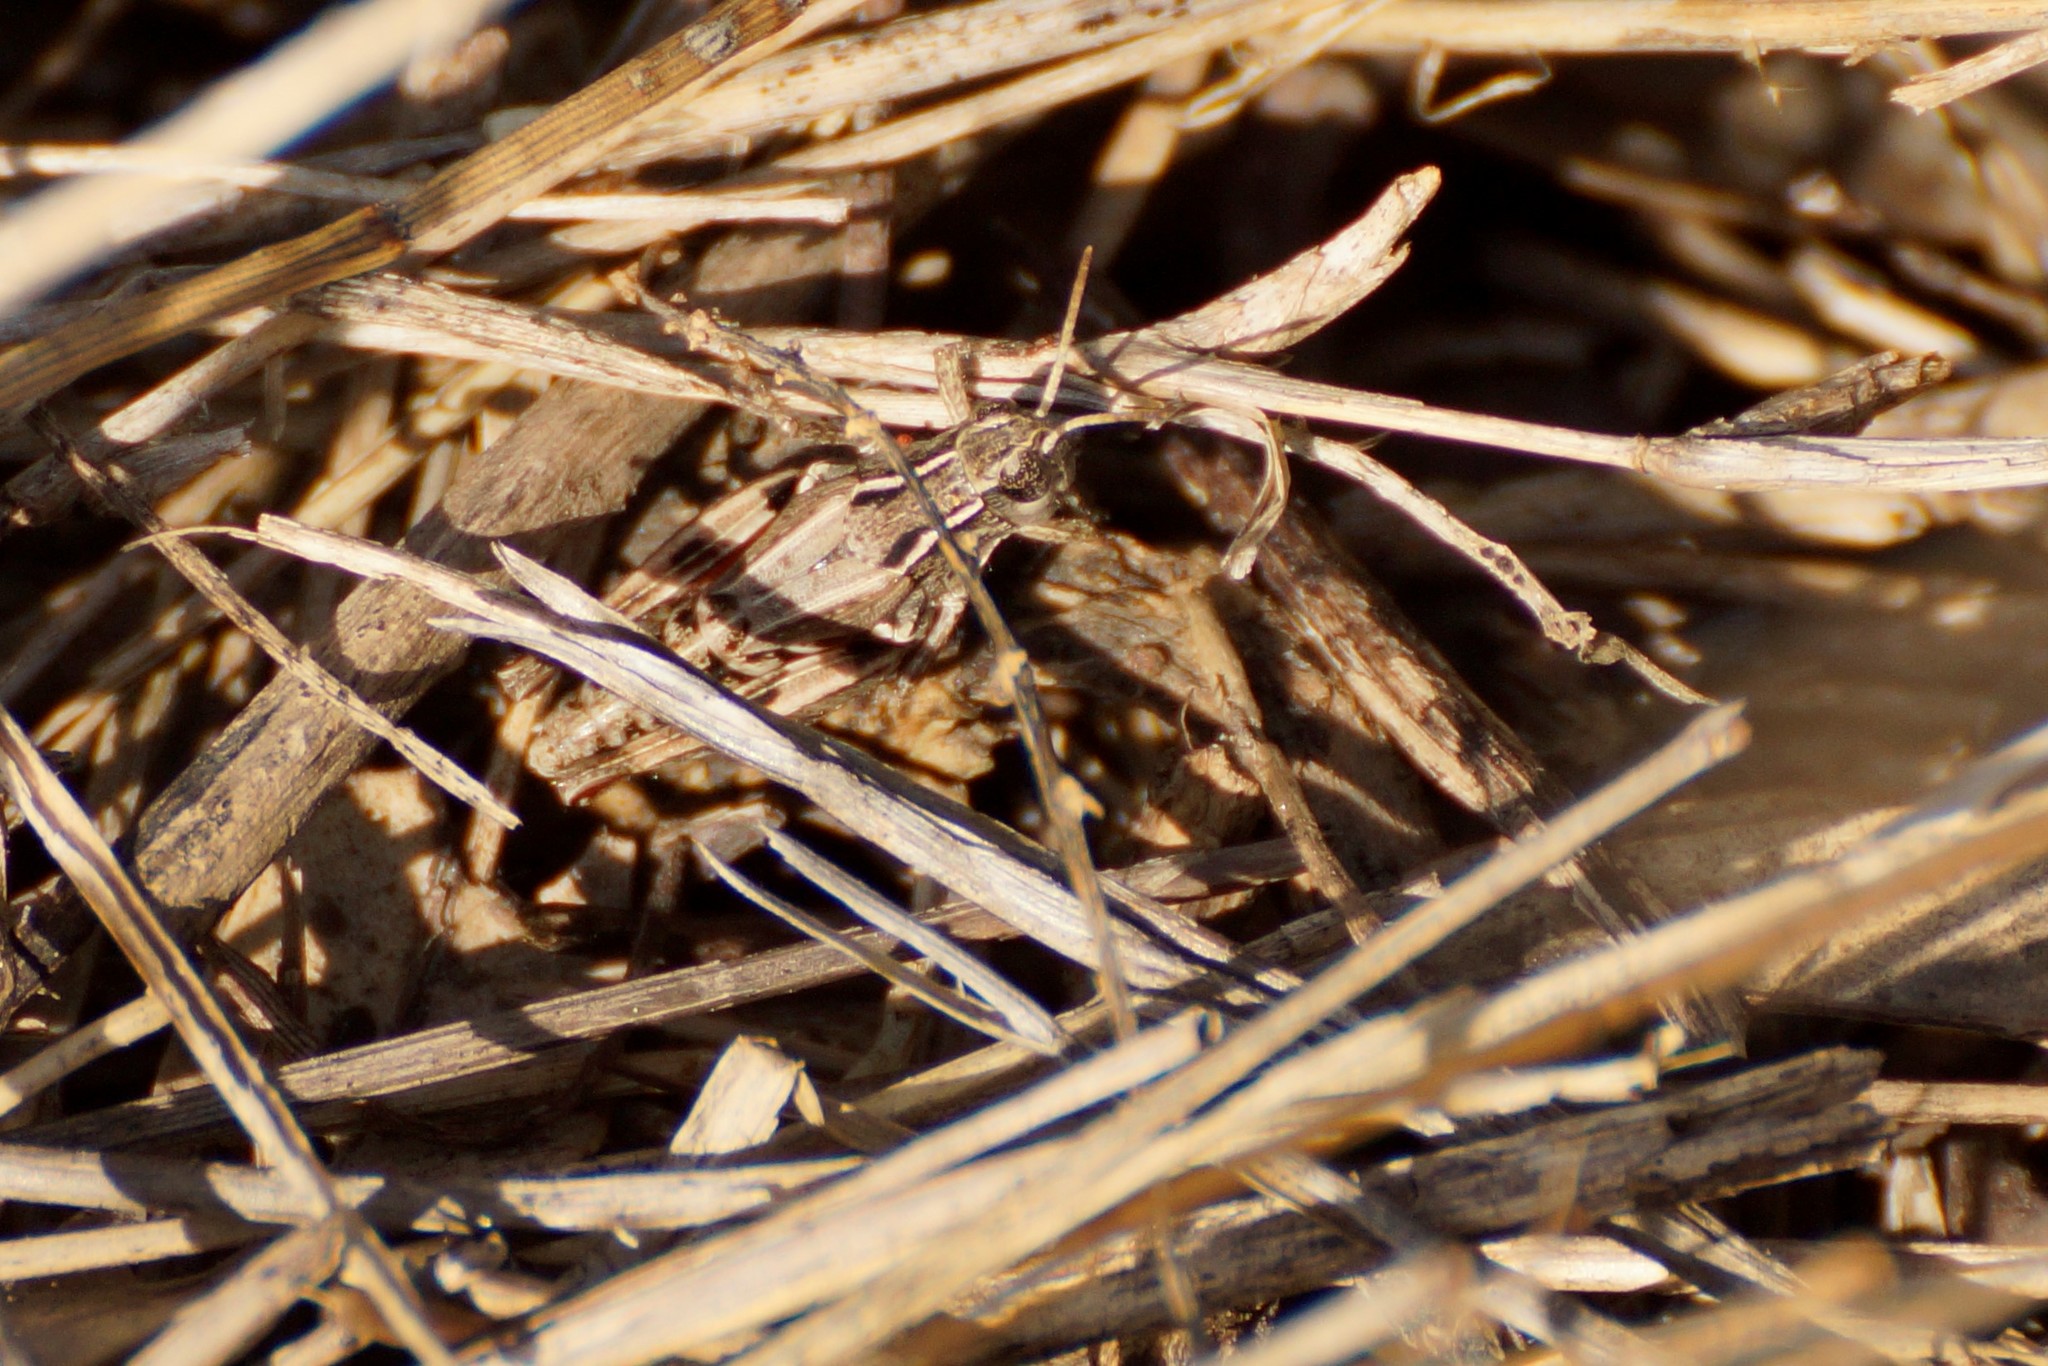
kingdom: Animalia
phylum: Arthropoda
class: Insecta
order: Orthoptera
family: Acrididae
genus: Phaulacridium
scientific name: Phaulacridium vittatum
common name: Wingless grasshopper
